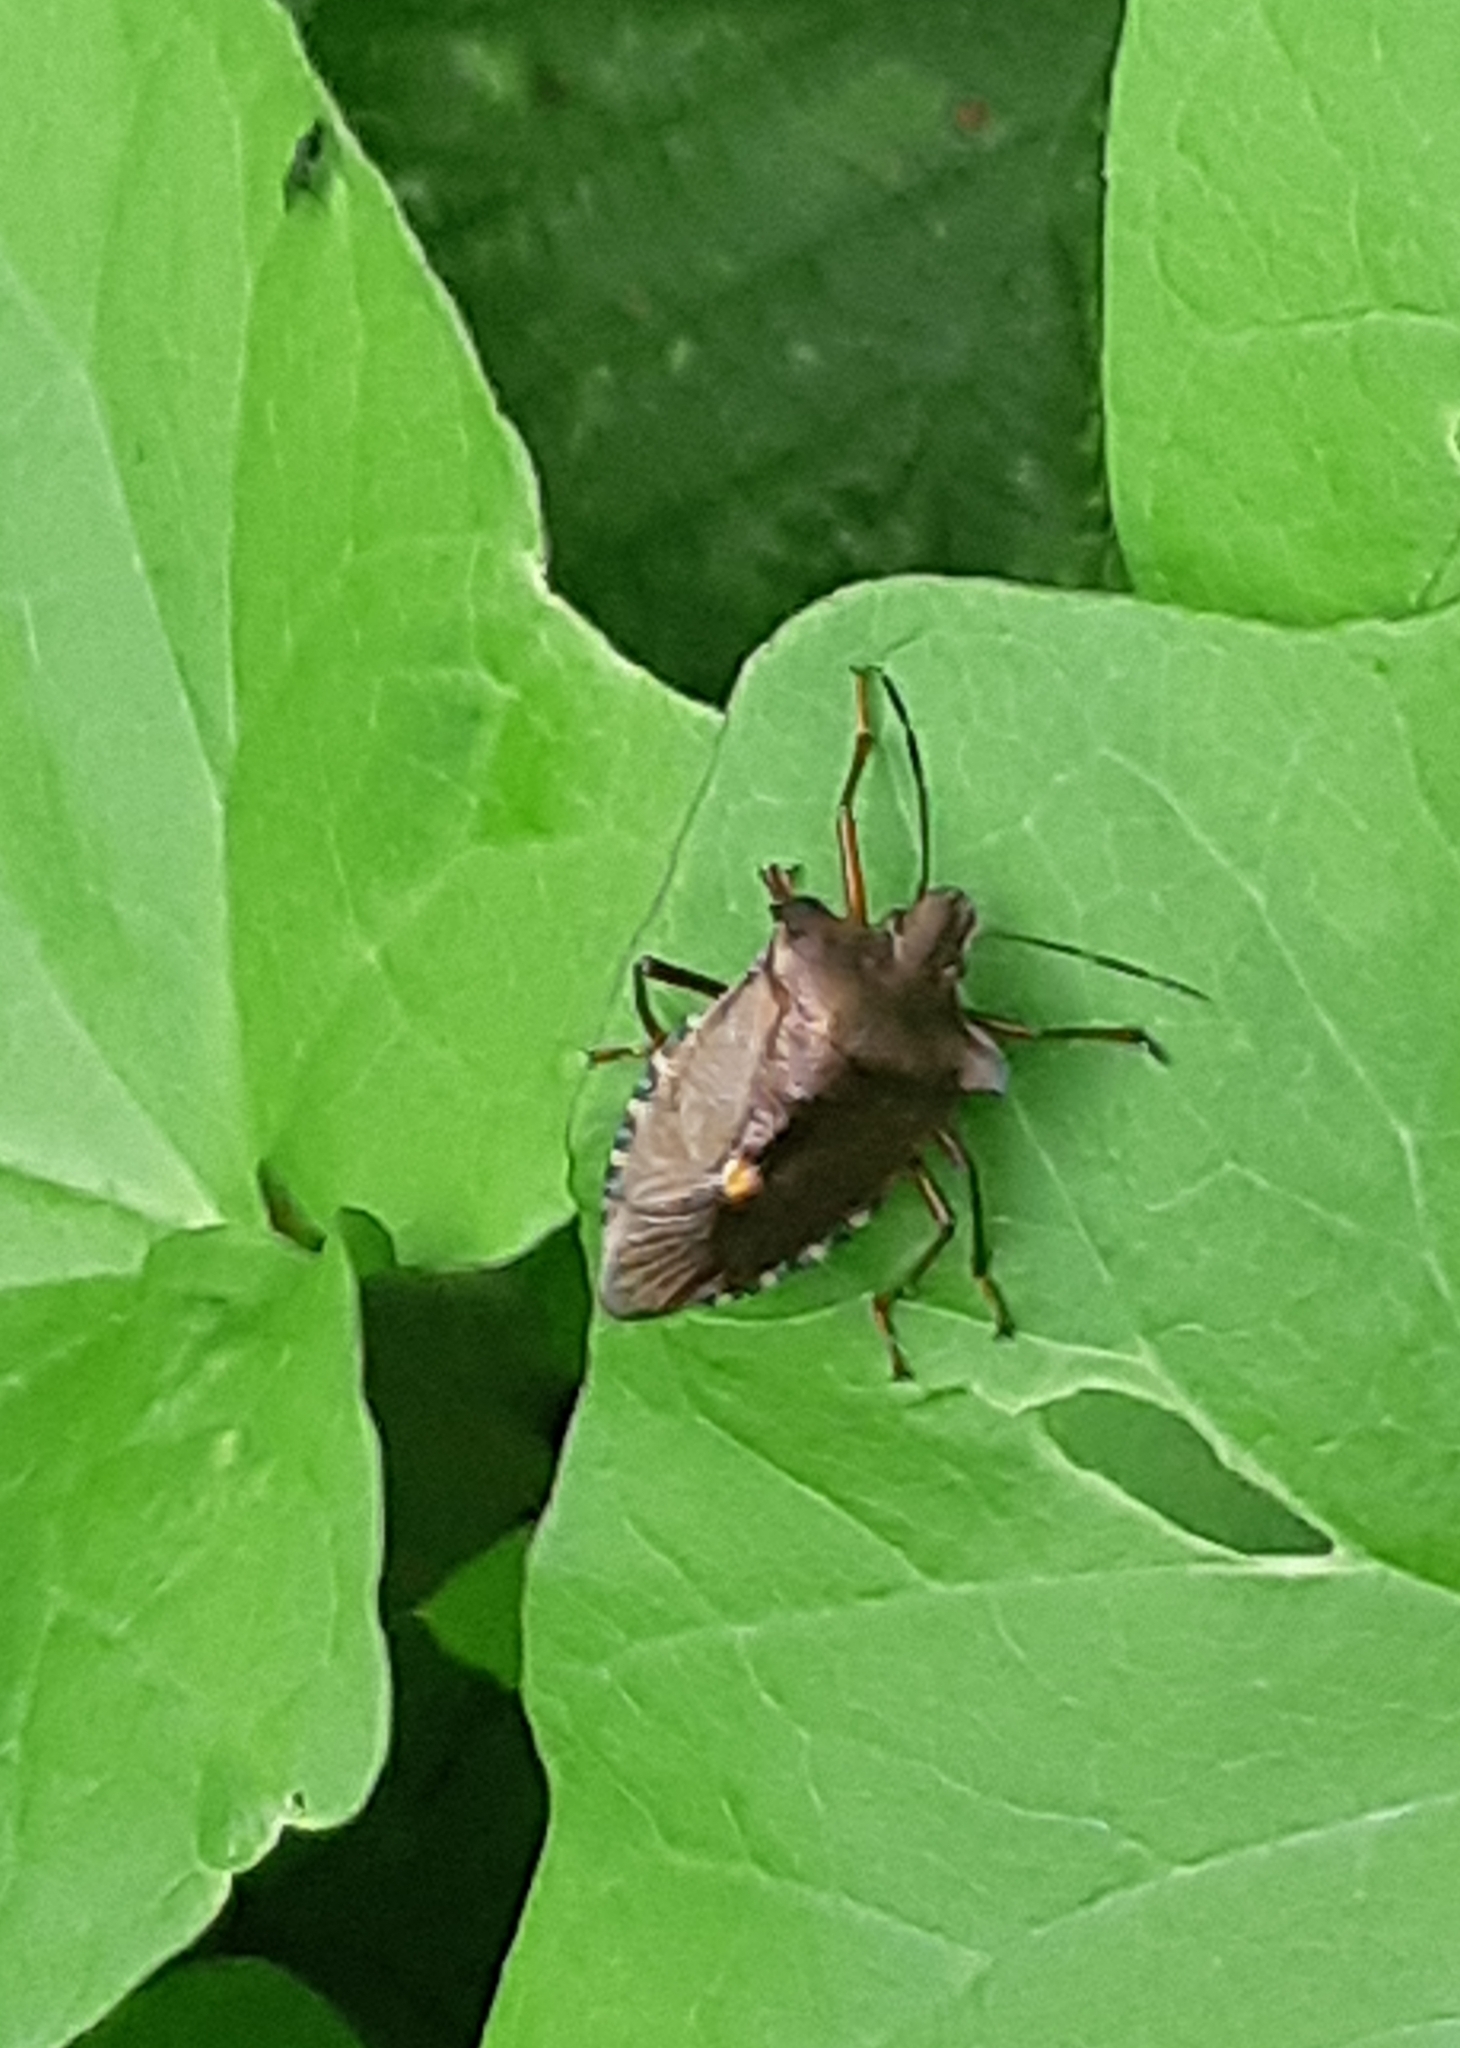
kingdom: Animalia
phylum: Arthropoda
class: Insecta
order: Hemiptera
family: Pentatomidae
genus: Pentatoma
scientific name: Pentatoma rufipes
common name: Forest bug
